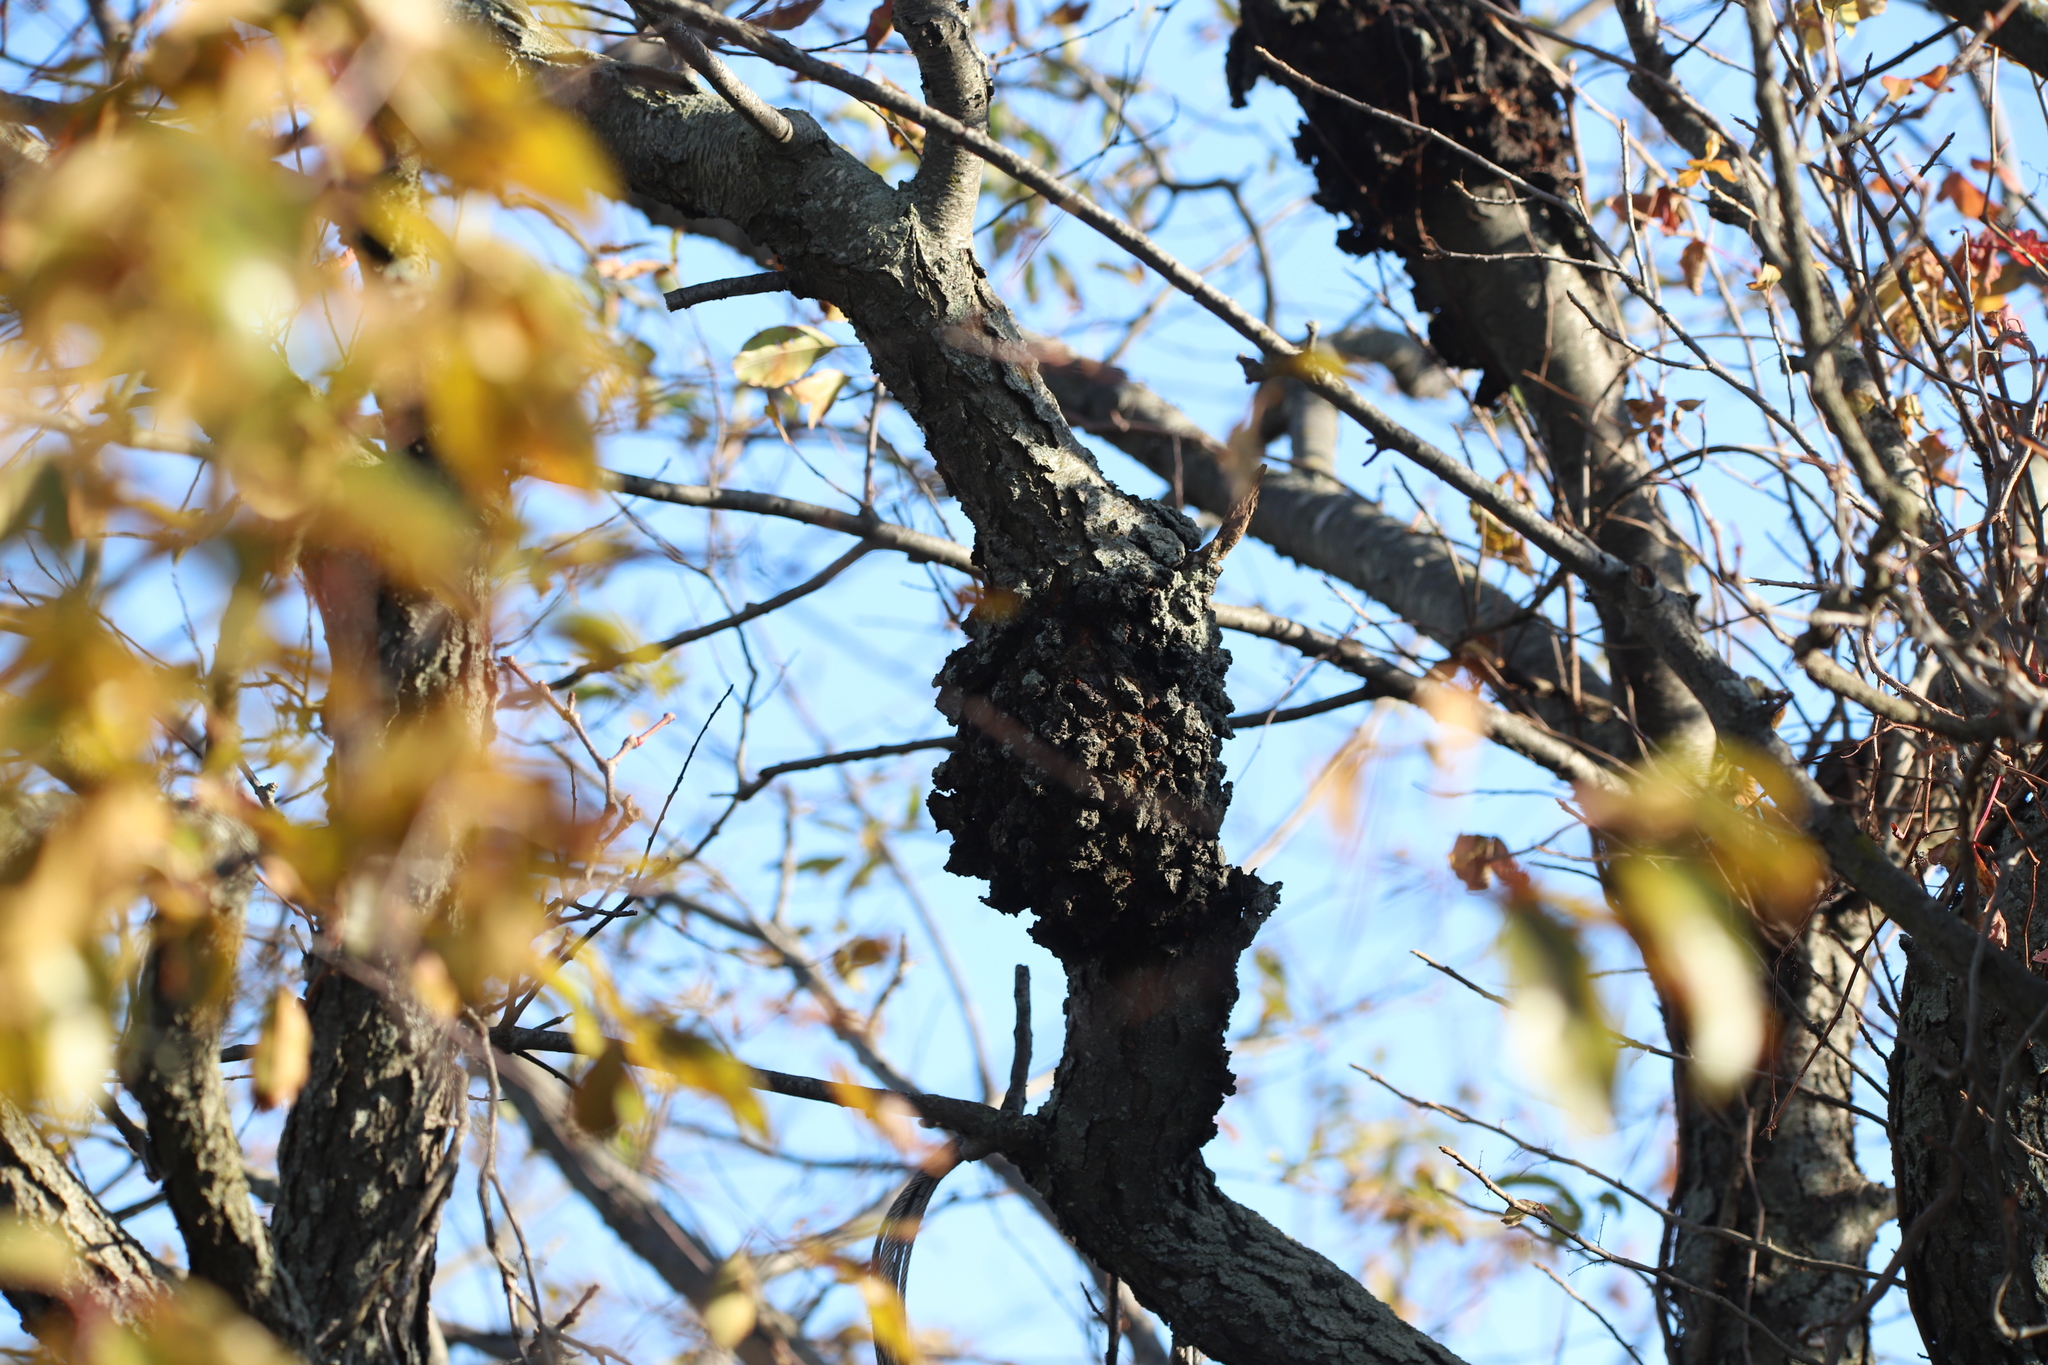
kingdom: Fungi
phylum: Ascomycota
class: Dothideomycetes
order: Venturiales
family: Venturiaceae
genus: Apiosporina
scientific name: Apiosporina morbosa
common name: Black knot
